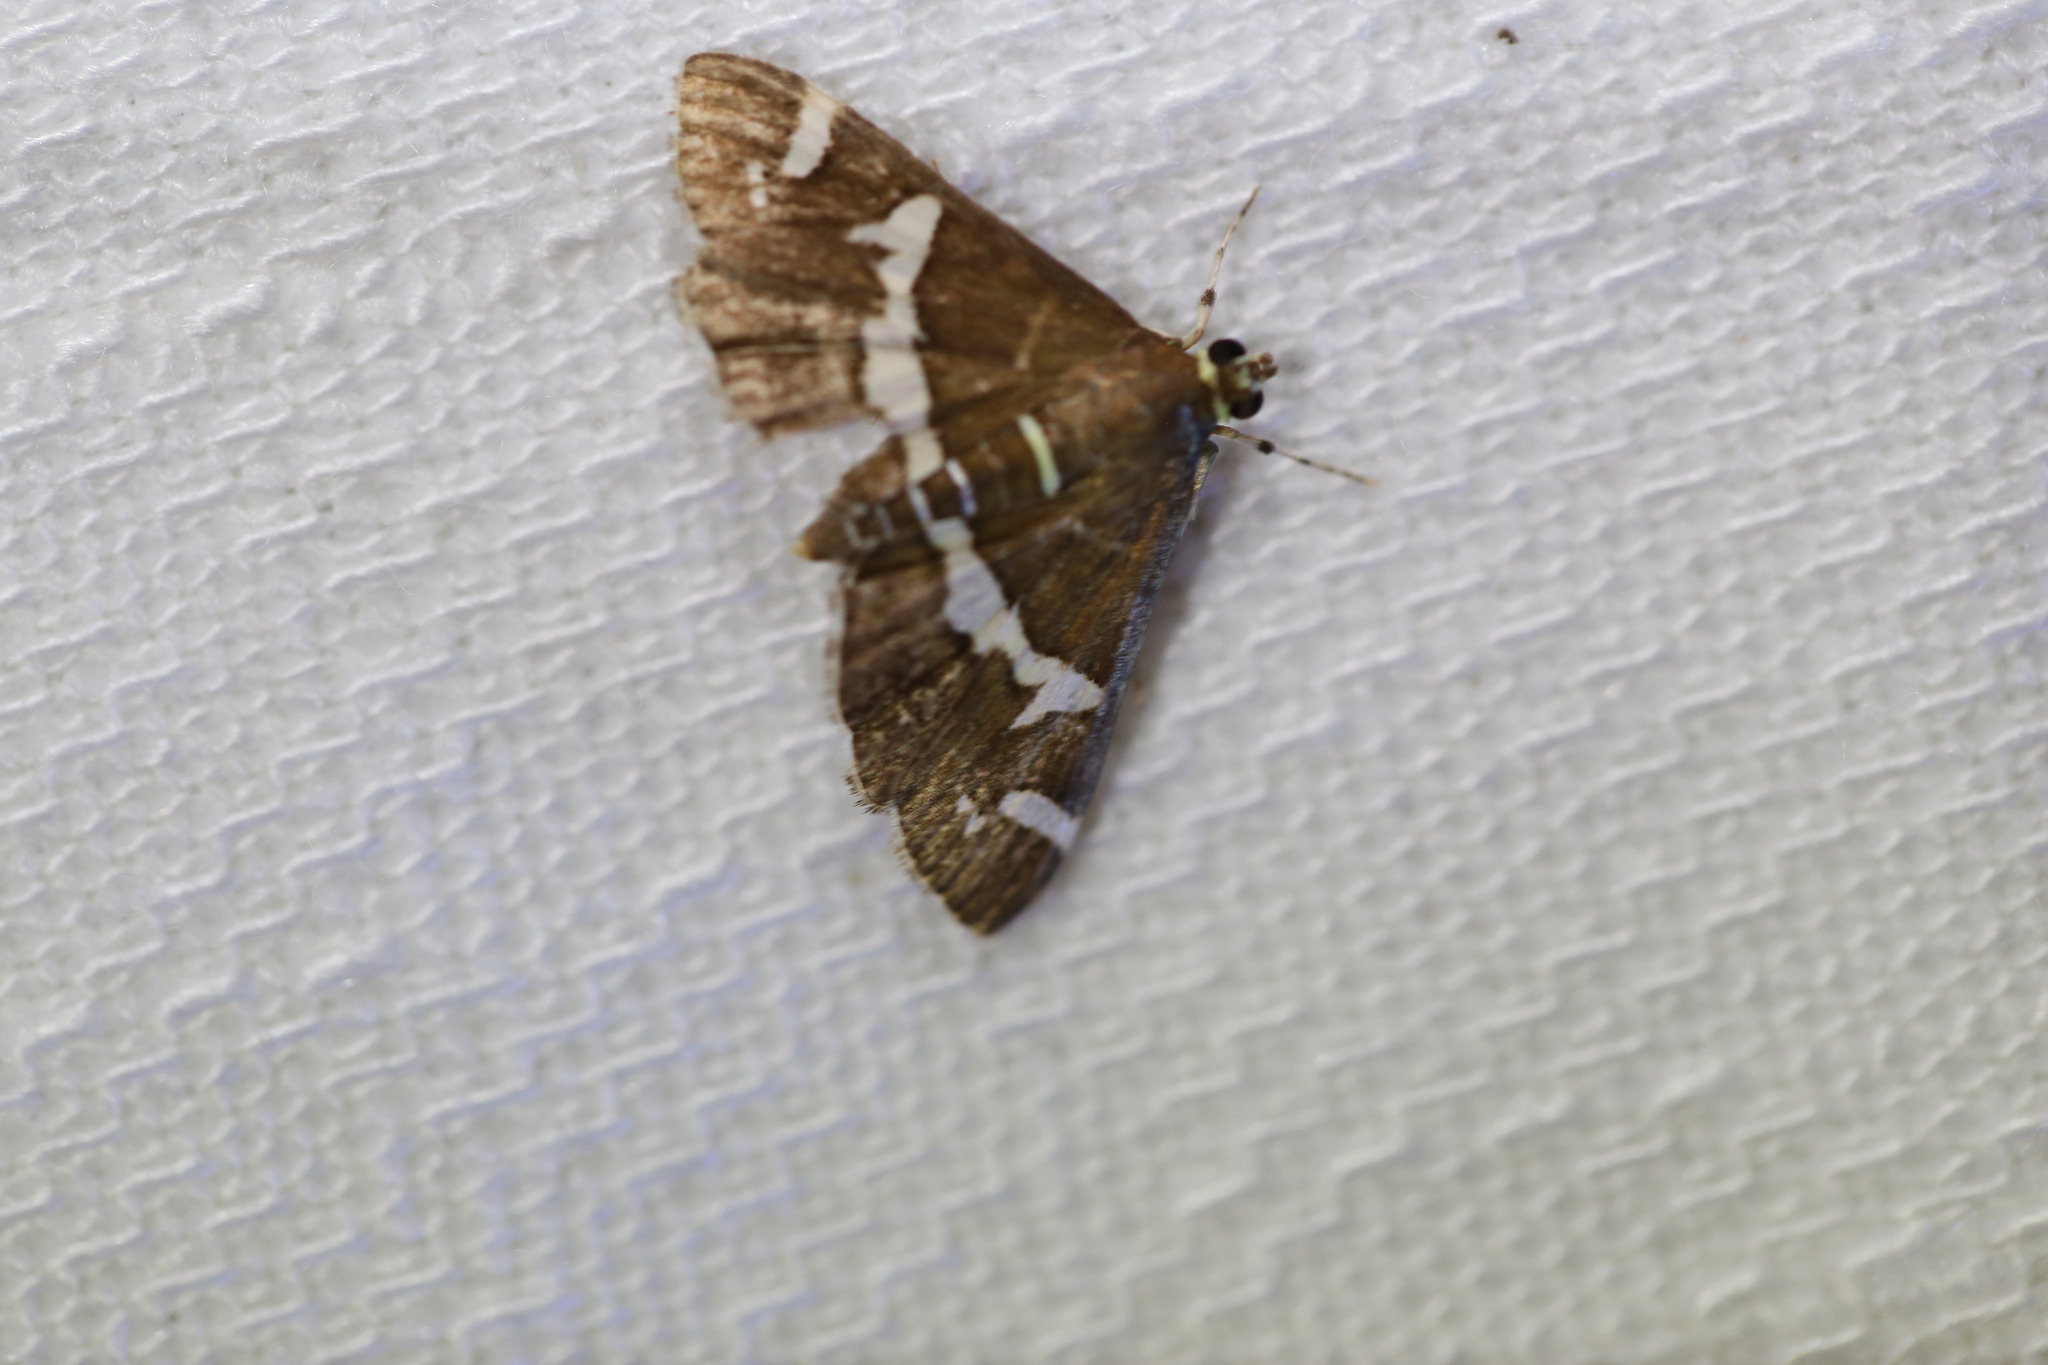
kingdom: Animalia
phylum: Arthropoda
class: Insecta
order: Lepidoptera
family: Crambidae
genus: Spoladea
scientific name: Spoladea recurvalis
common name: Beet webworm moth
